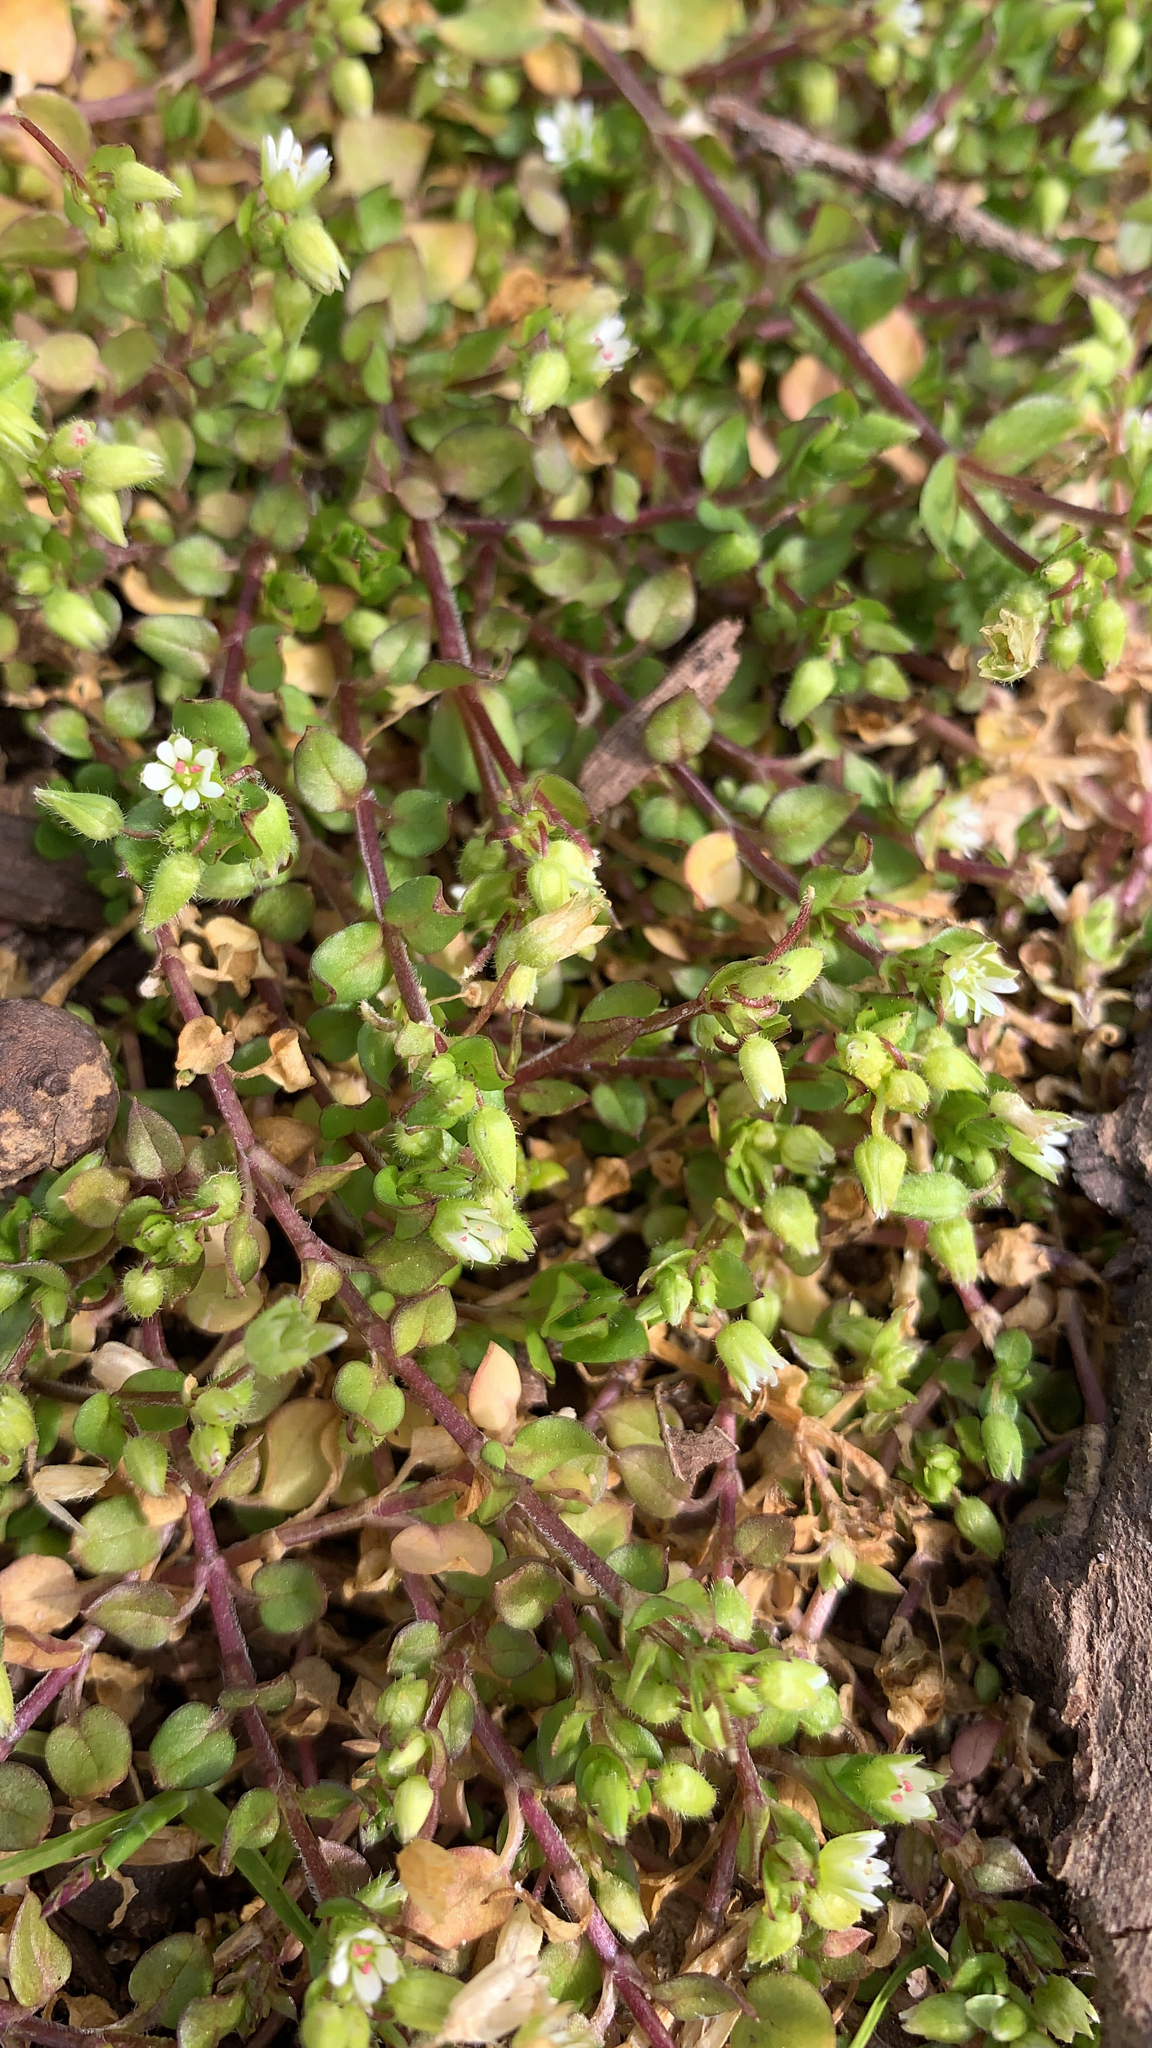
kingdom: Plantae
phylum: Tracheophyta
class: Magnoliopsida
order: Caryophyllales
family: Caryophyllaceae
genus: Stellaria
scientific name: Stellaria media
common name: Common chickweed
